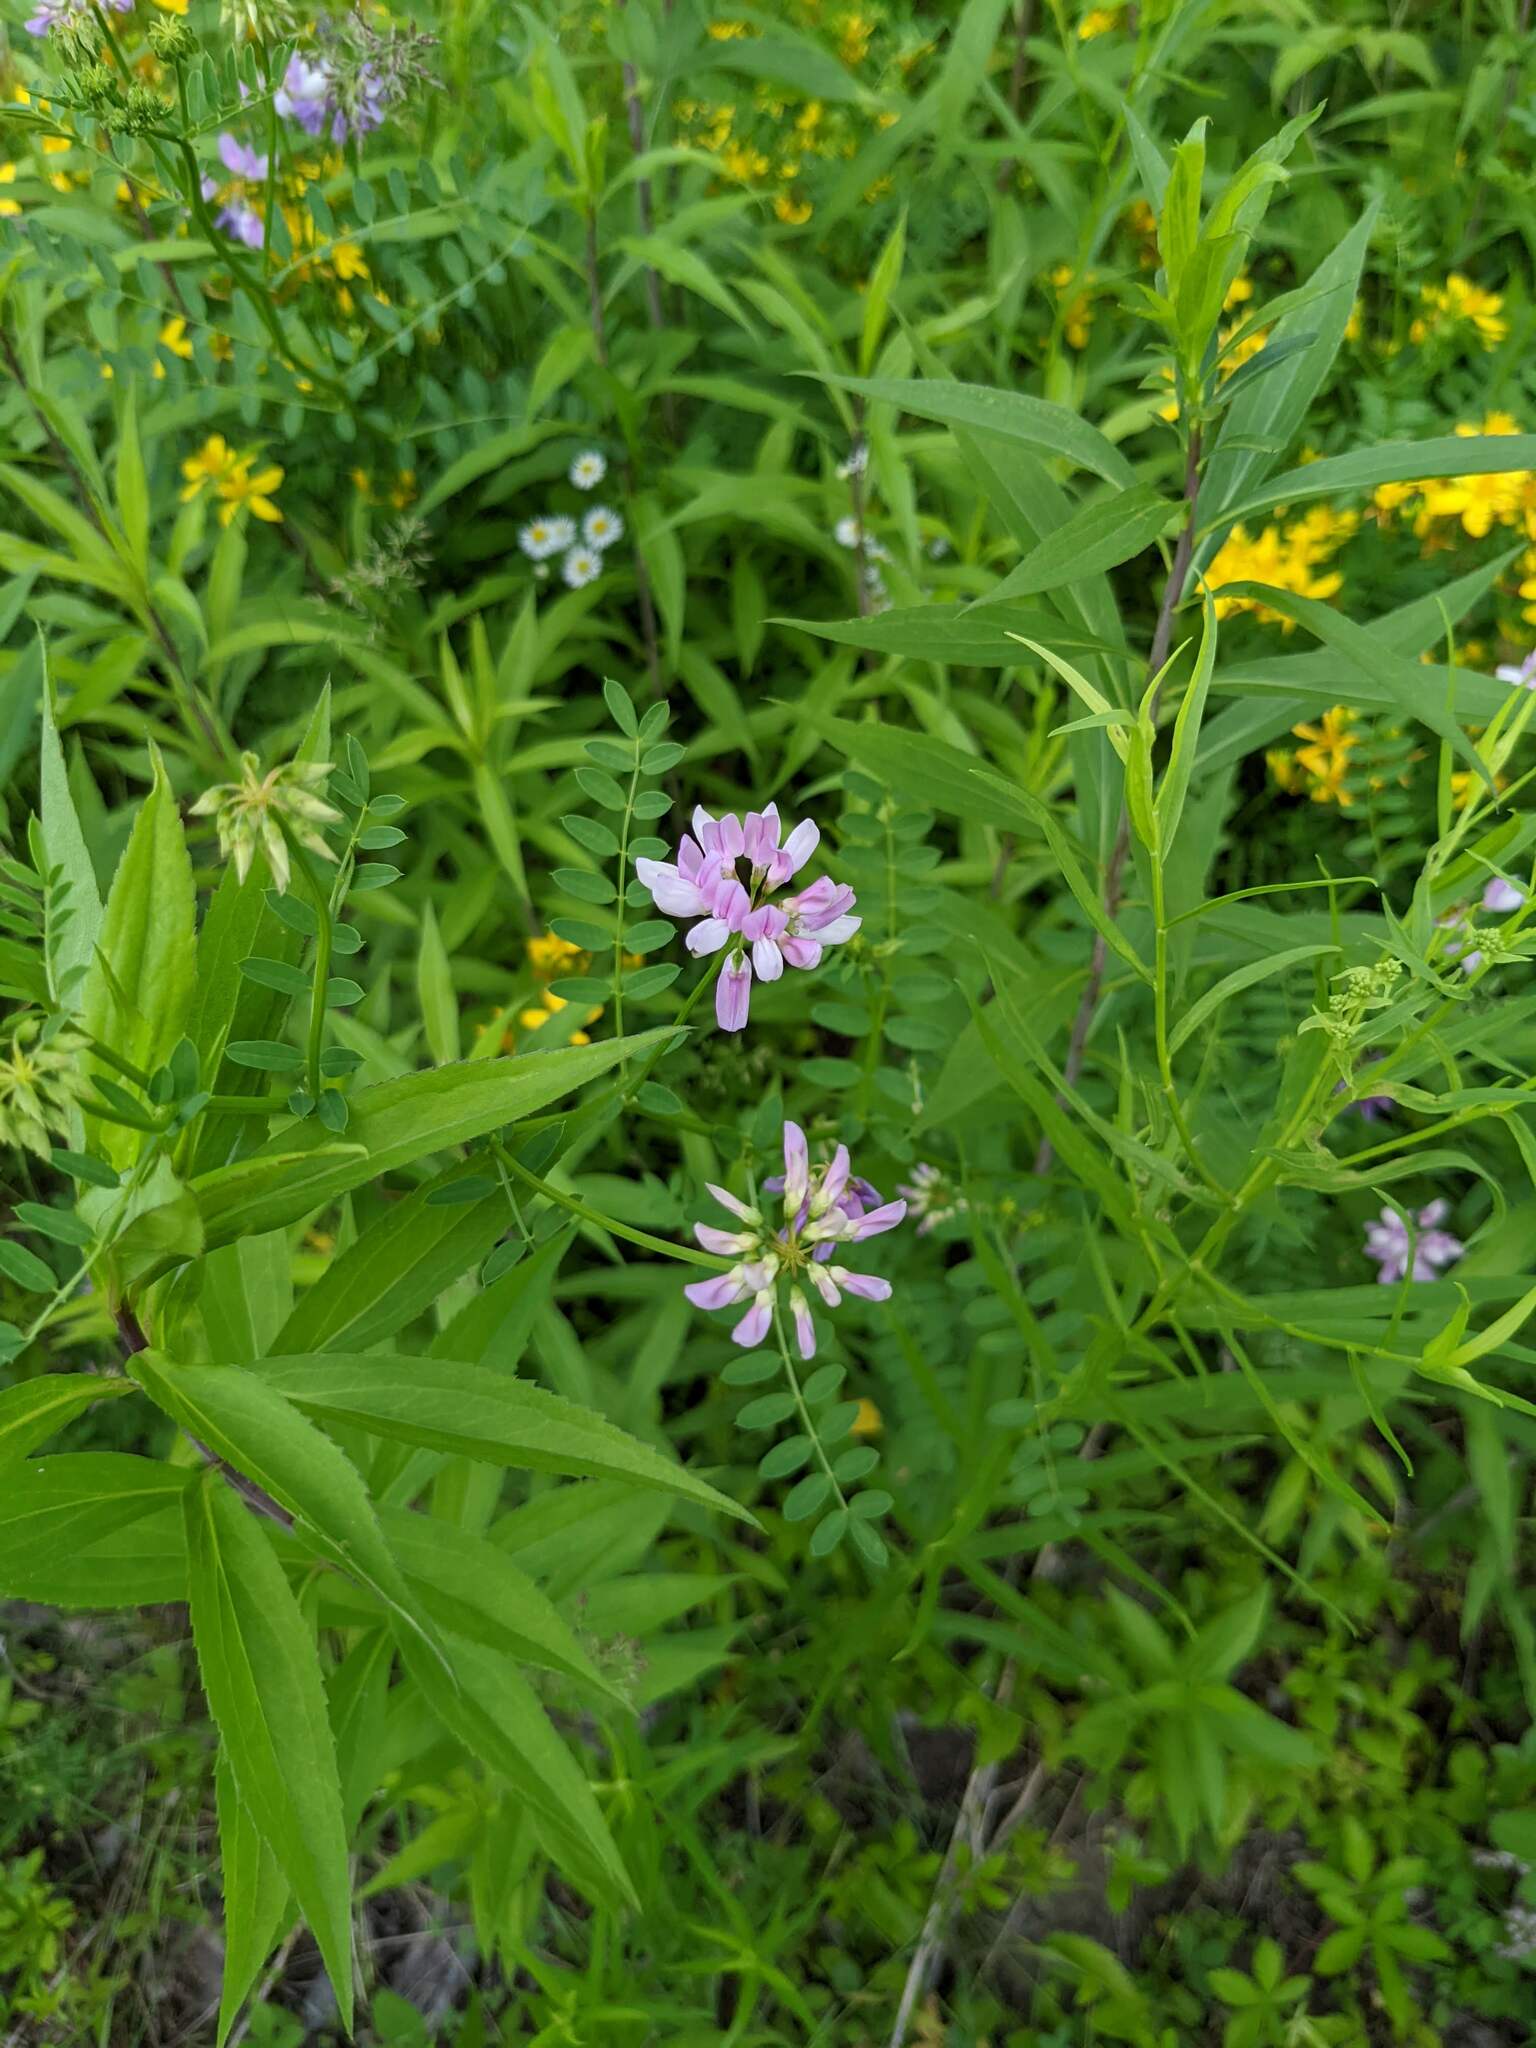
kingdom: Plantae
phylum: Tracheophyta
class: Magnoliopsida
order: Fabales
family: Fabaceae
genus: Coronilla
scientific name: Coronilla varia
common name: Crownvetch
